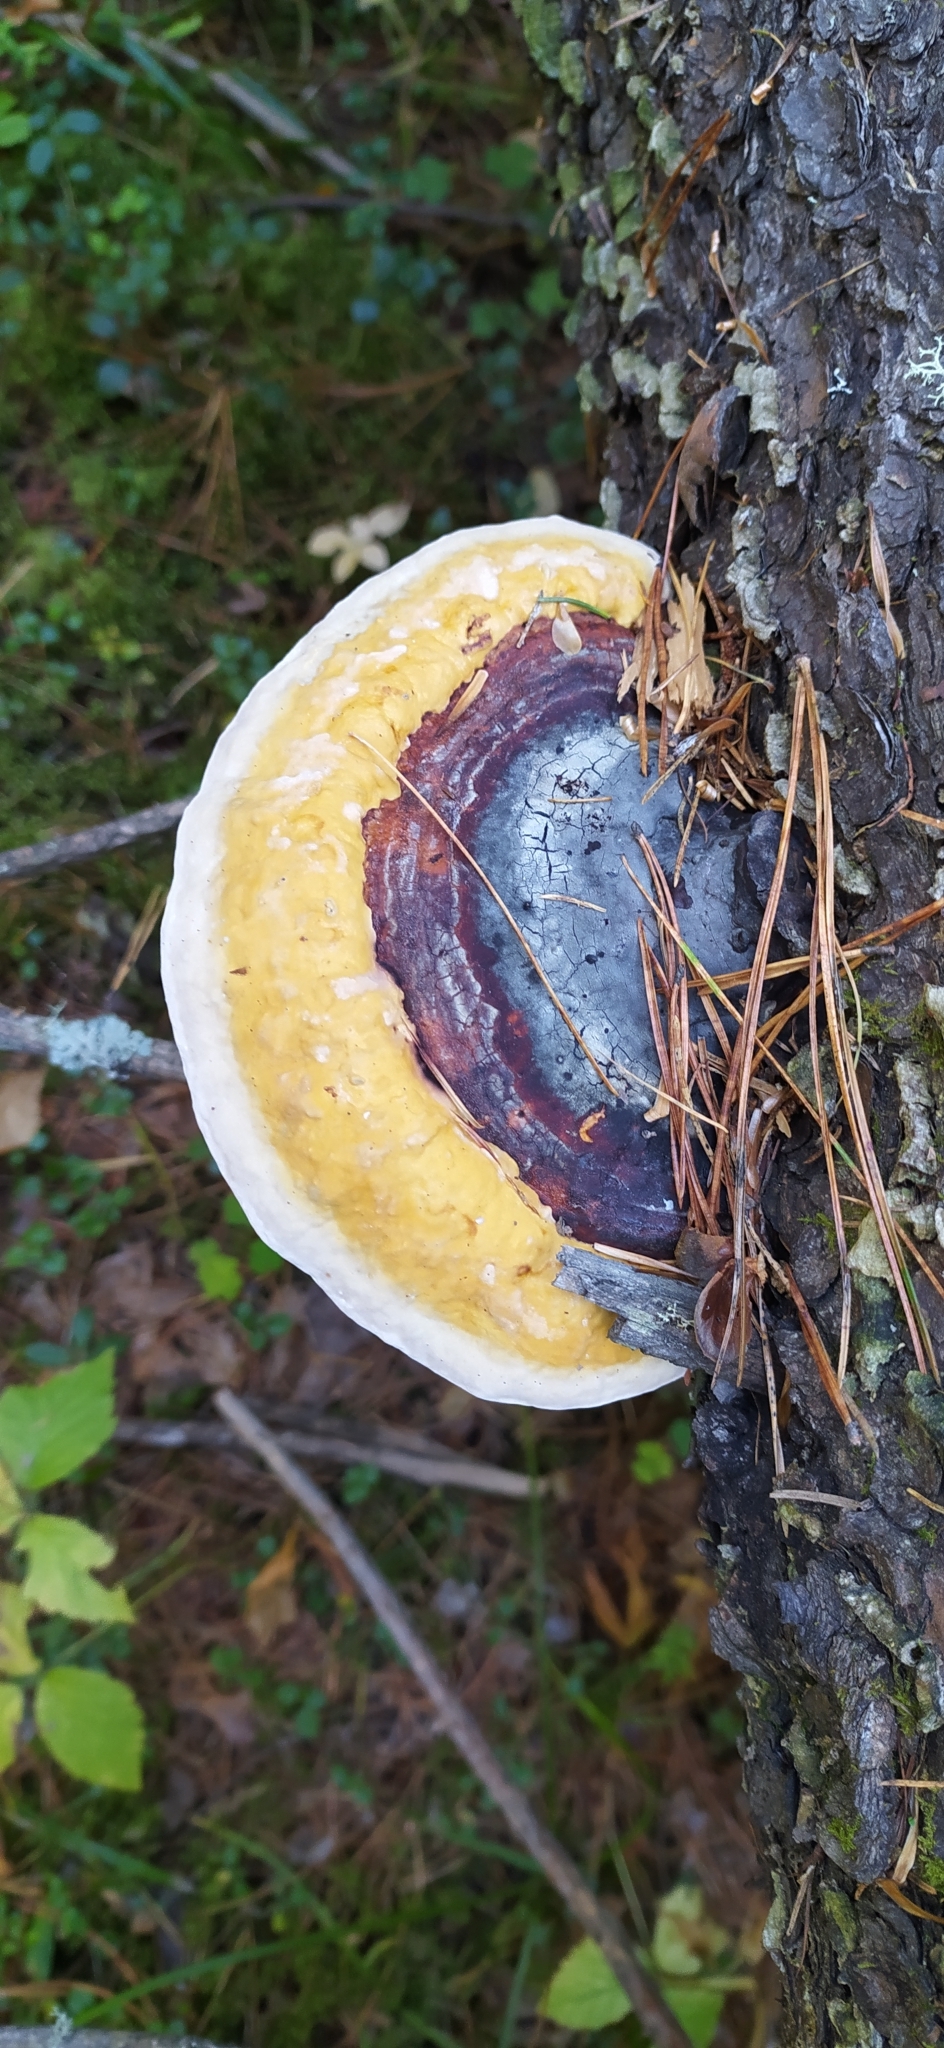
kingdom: Fungi
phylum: Basidiomycota
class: Agaricomycetes
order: Polyporales
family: Fomitopsidaceae
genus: Fomitopsis
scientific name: Fomitopsis pinicola
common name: Red-belted bracket
